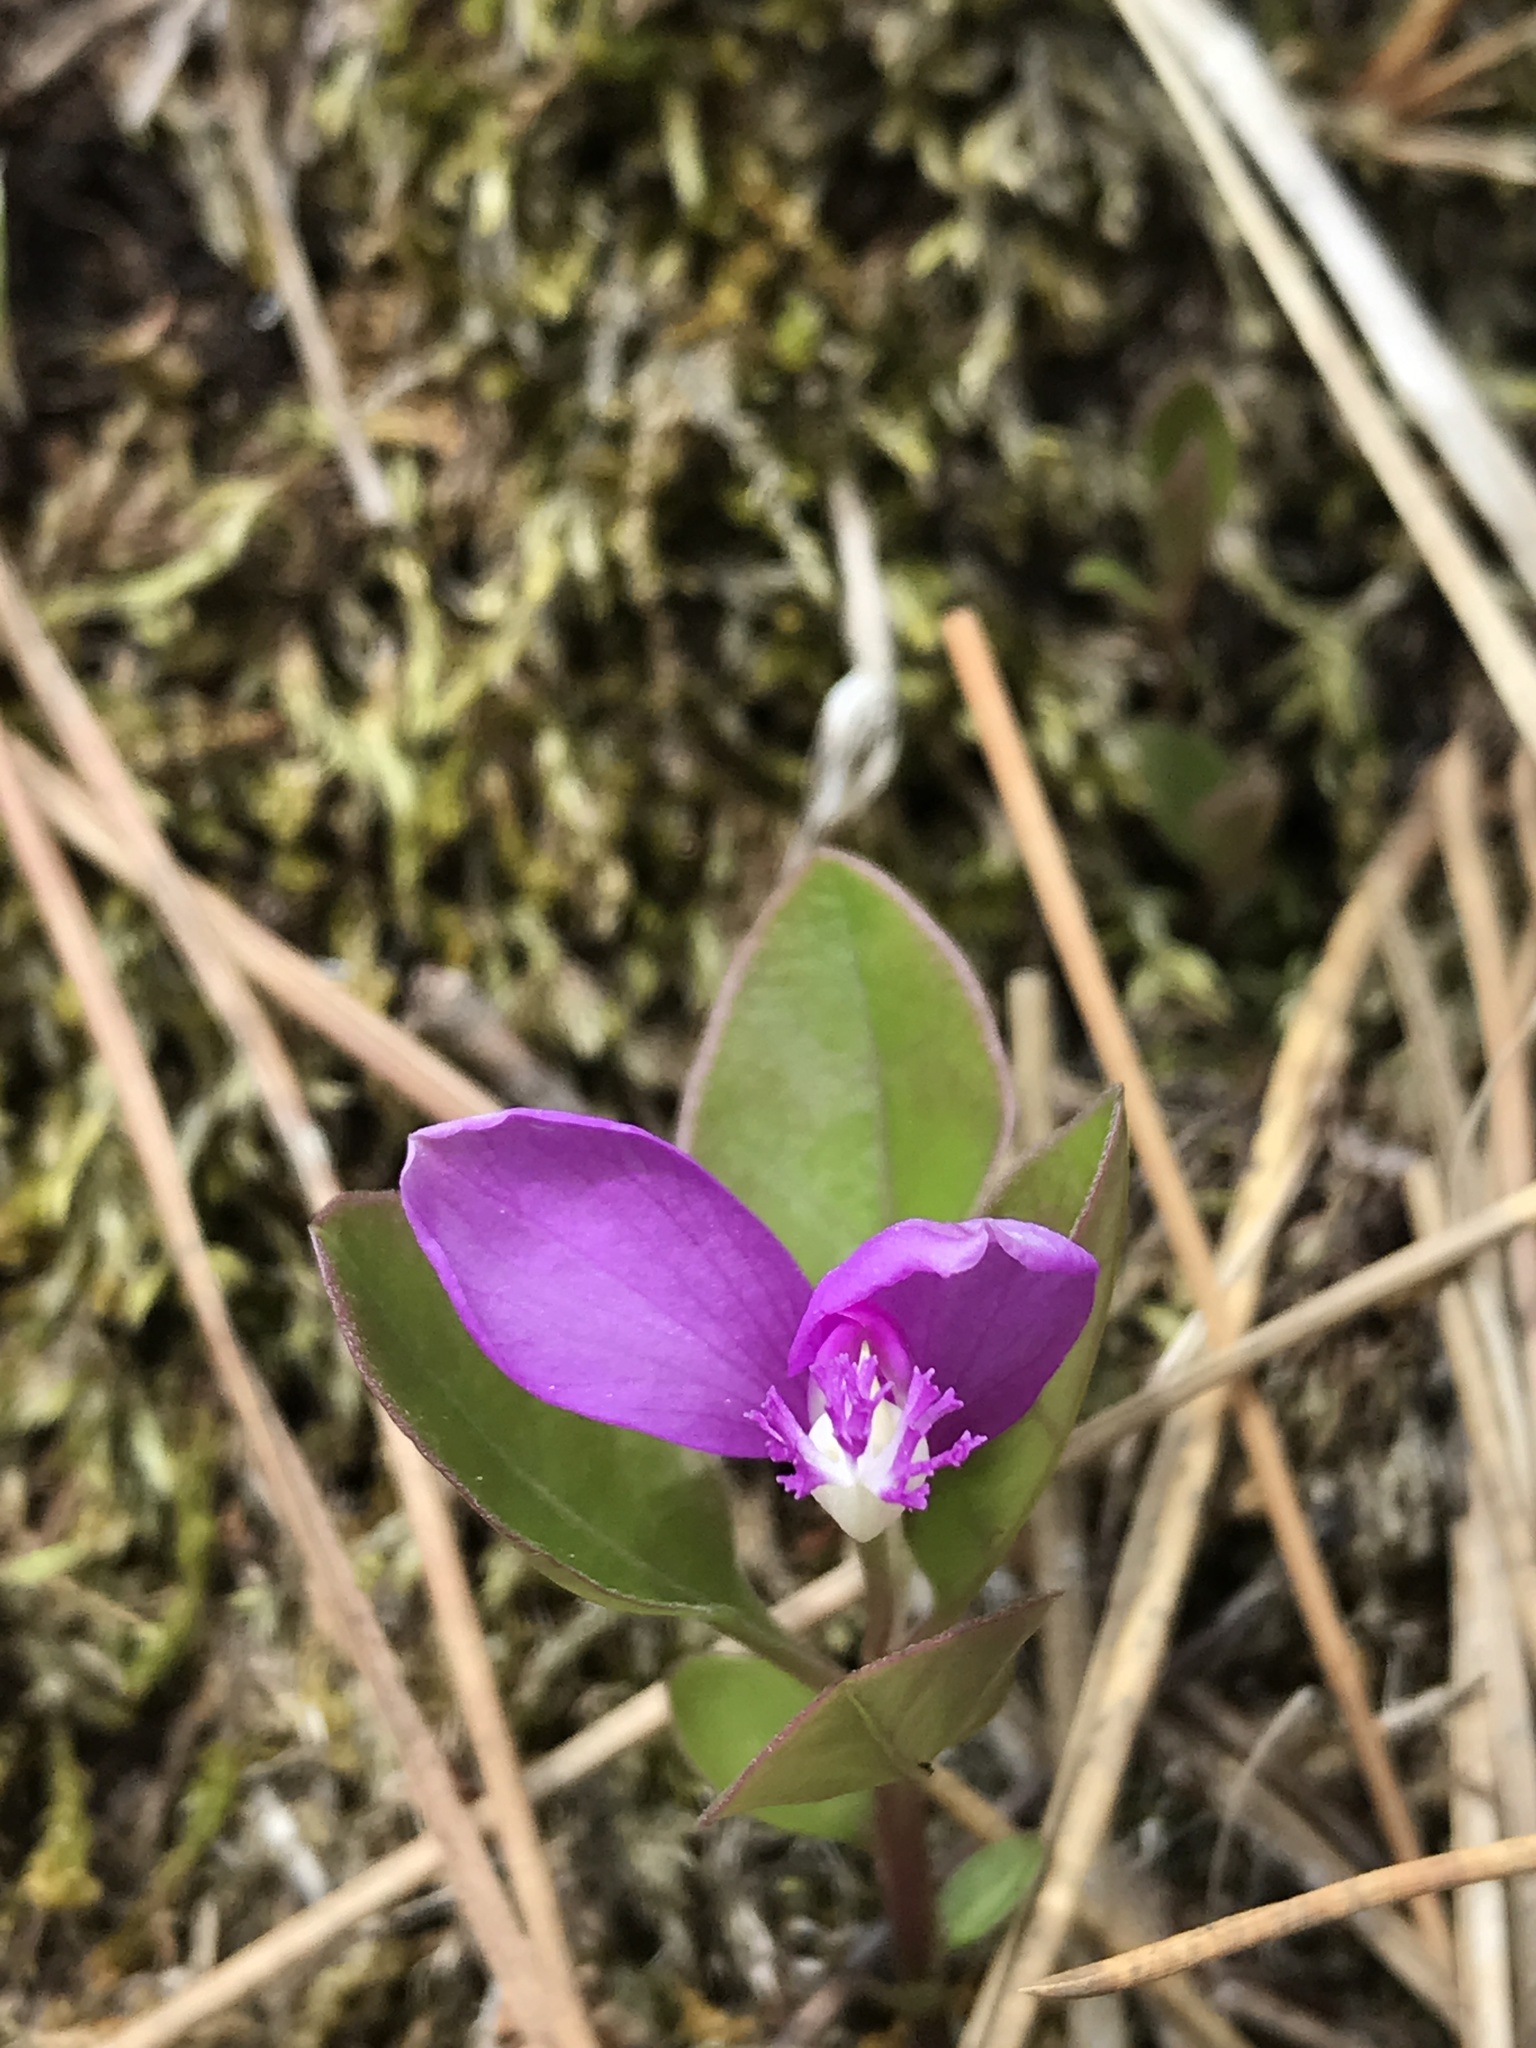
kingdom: Plantae
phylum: Tracheophyta
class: Magnoliopsida
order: Fabales
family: Polygalaceae
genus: Polygaloides
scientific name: Polygaloides paucifolia
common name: Bird-on-the-wing
